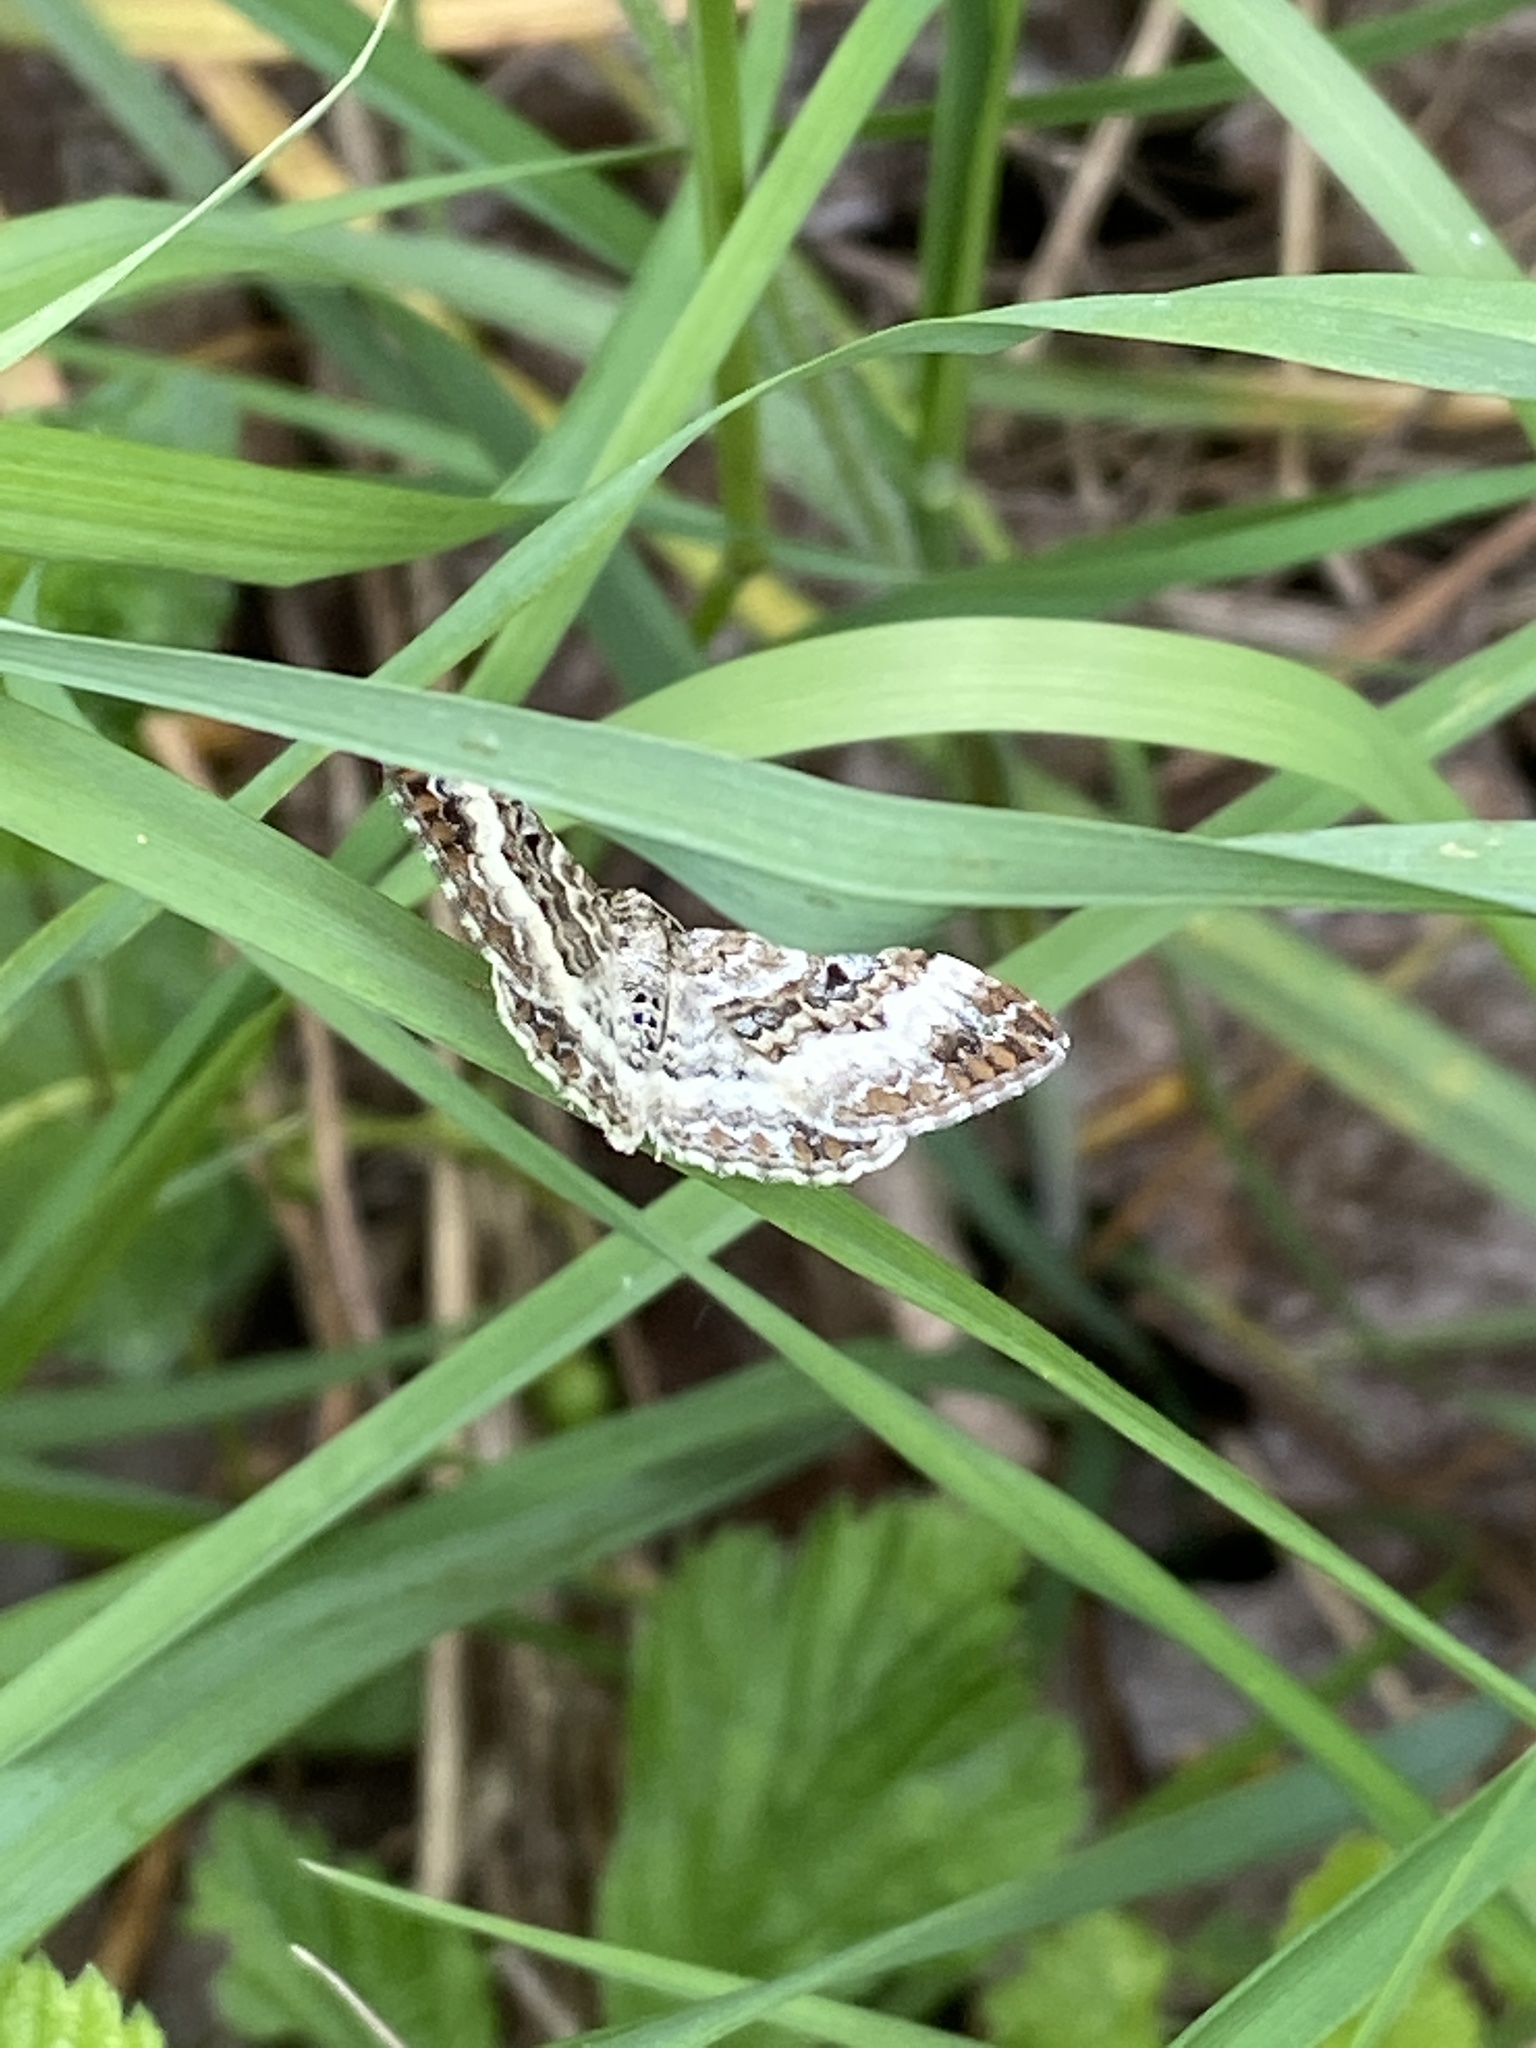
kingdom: Animalia
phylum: Arthropoda
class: Insecta
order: Lepidoptera
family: Geometridae
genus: Epirrhoe
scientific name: Epirrhoe alternata
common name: Common carpet
